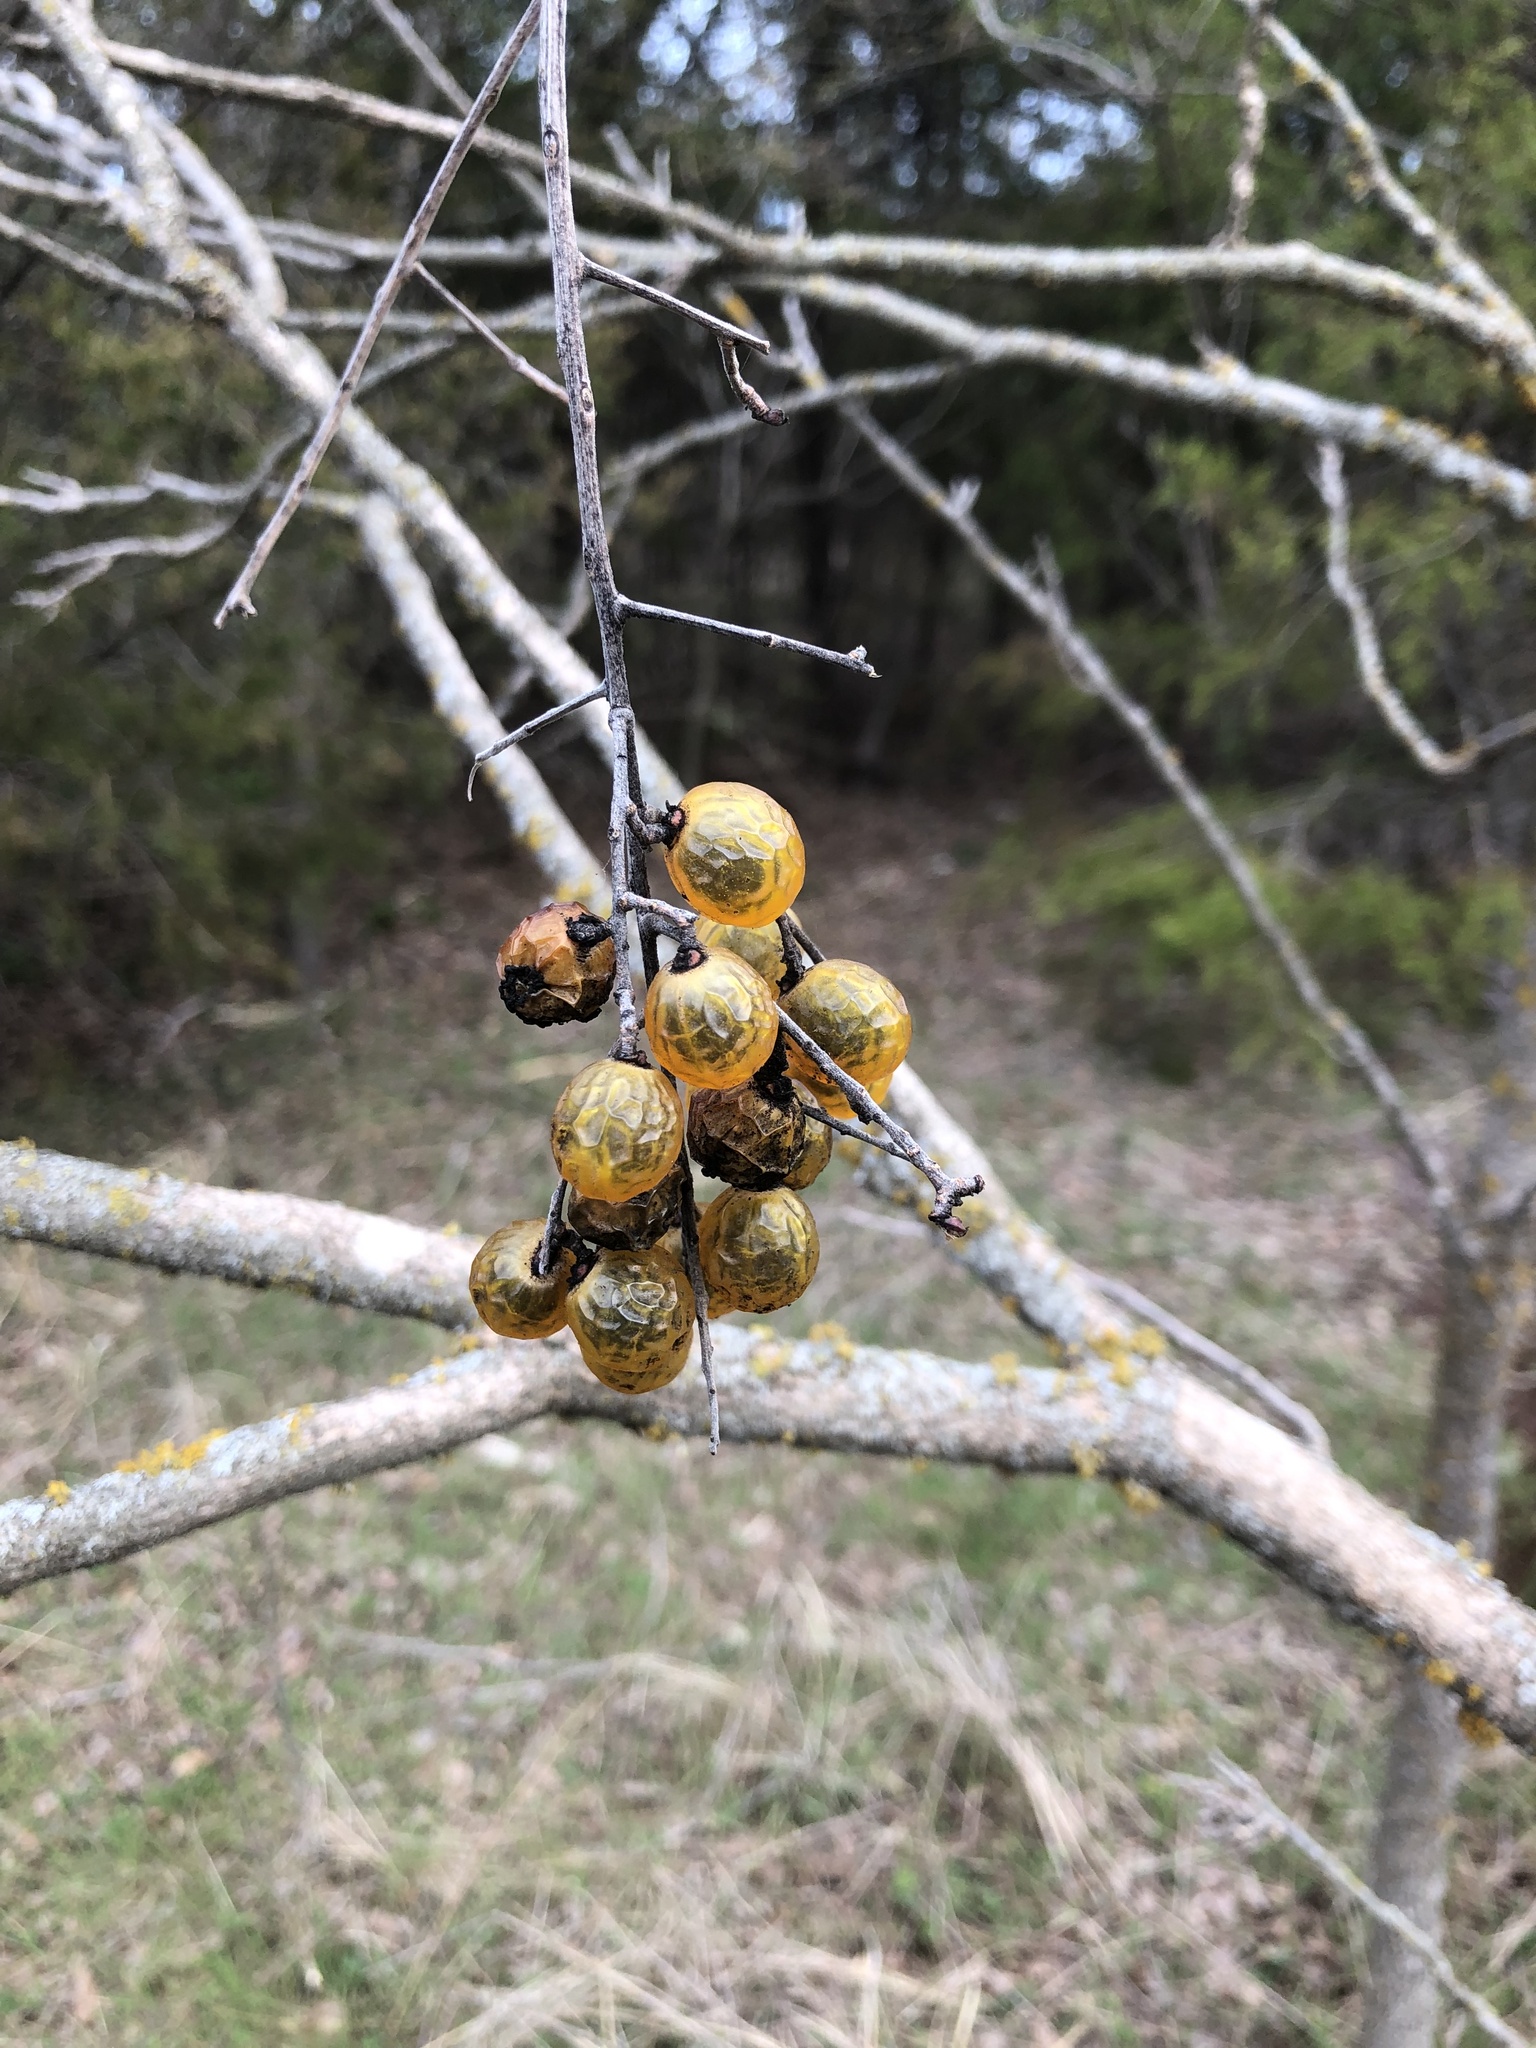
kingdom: Plantae
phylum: Tracheophyta
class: Magnoliopsida
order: Sapindales
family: Sapindaceae
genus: Sapindus
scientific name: Sapindus drummondii
